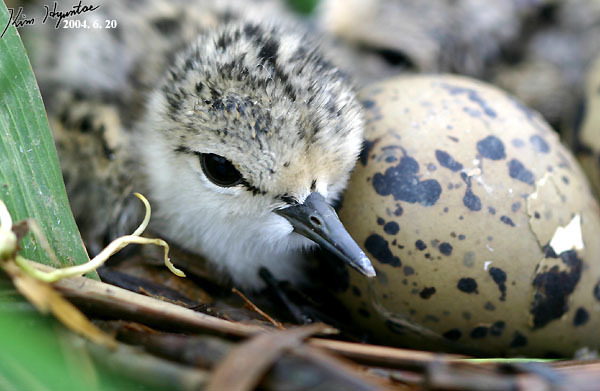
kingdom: Animalia
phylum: Chordata
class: Aves
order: Charadriiformes
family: Recurvirostridae
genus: Himantopus
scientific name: Himantopus himantopus
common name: Black-winged stilt
